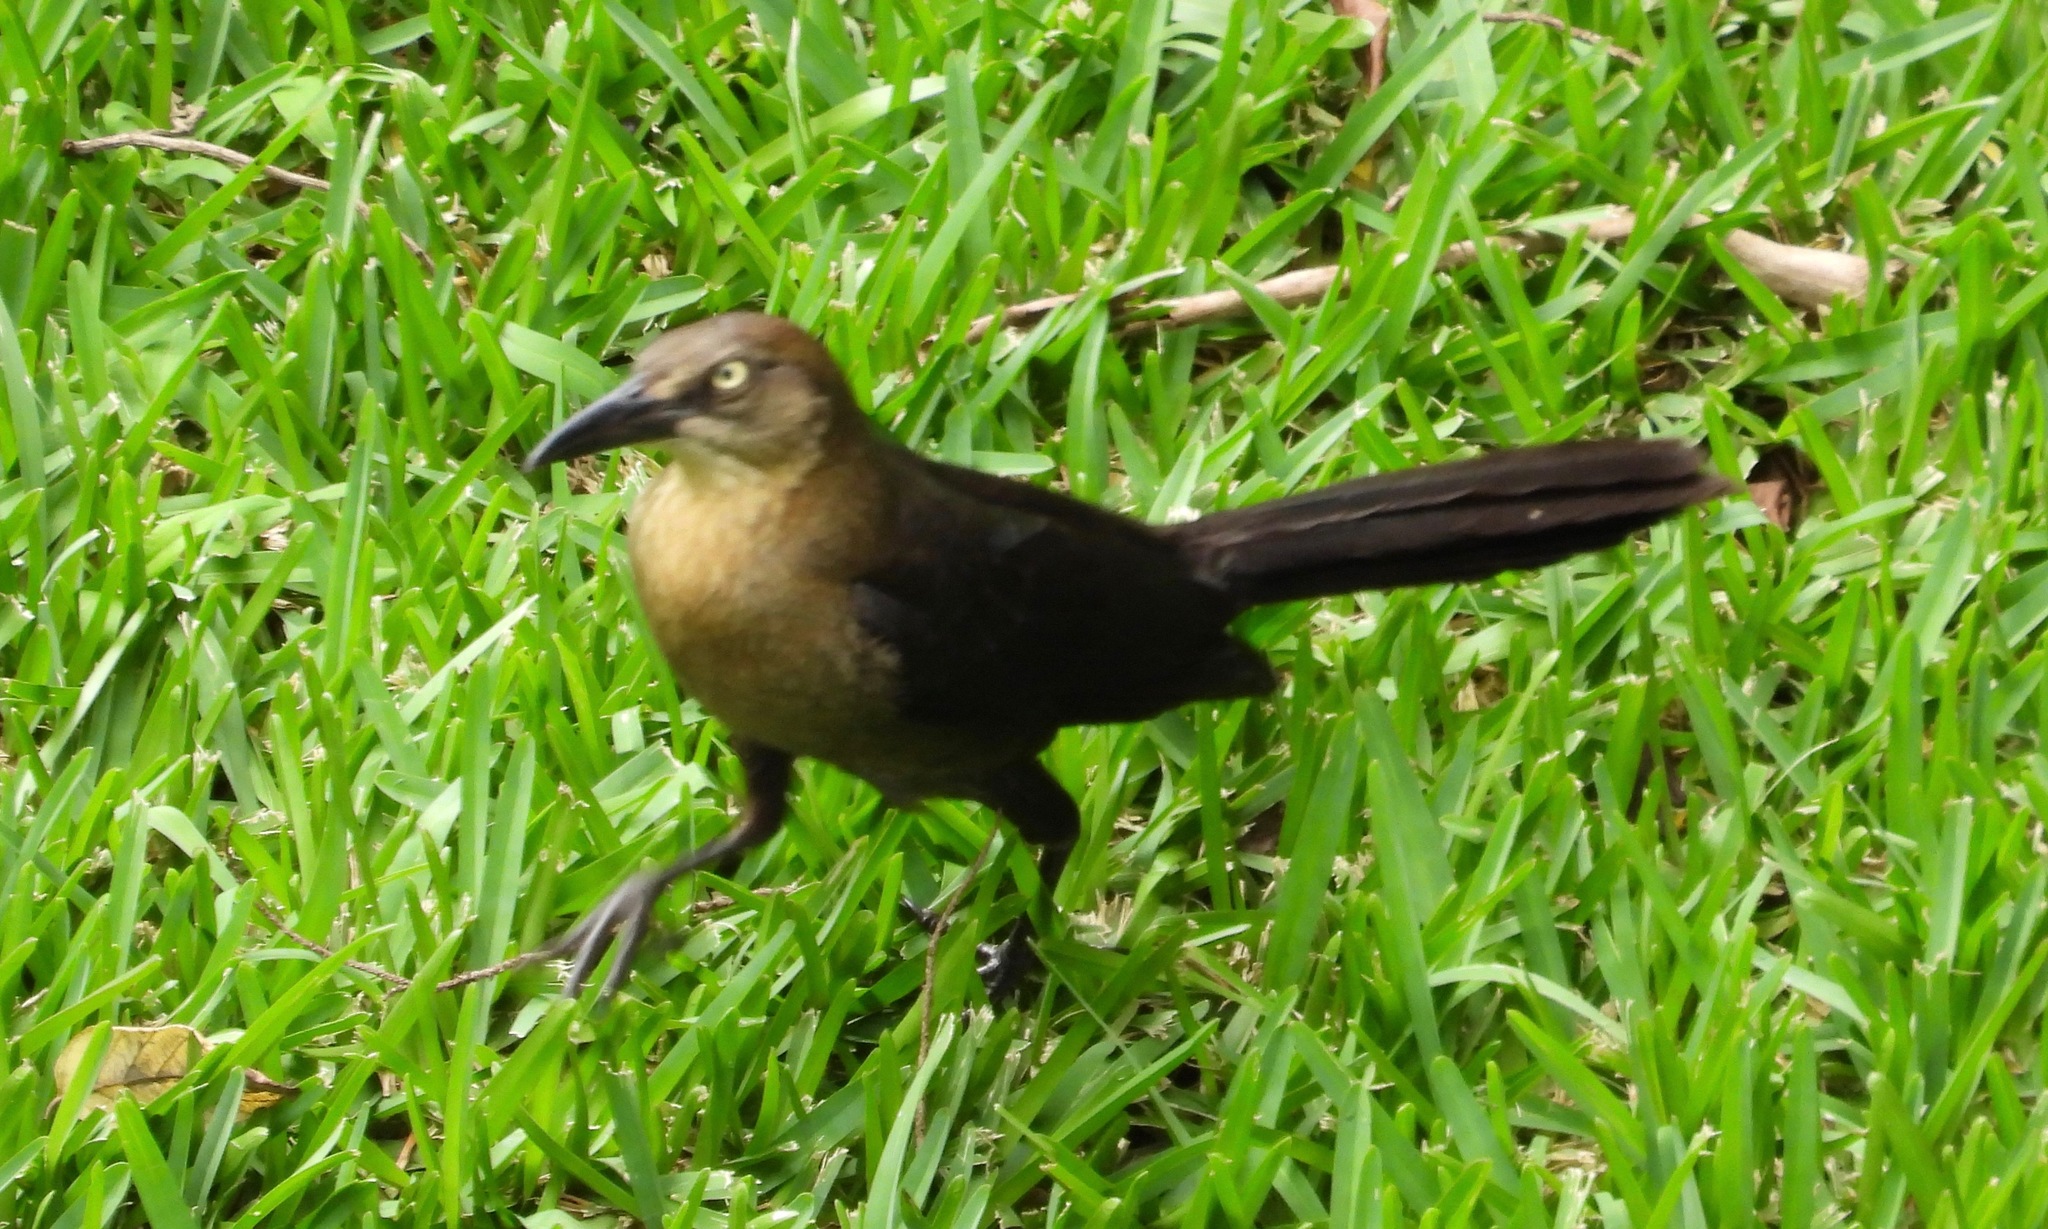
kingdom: Animalia
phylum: Chordata
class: Aves
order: Passeriformes
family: Icteridae
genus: Quiscalus
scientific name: Quiscalus mexicanus
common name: Great-tailed grackle
